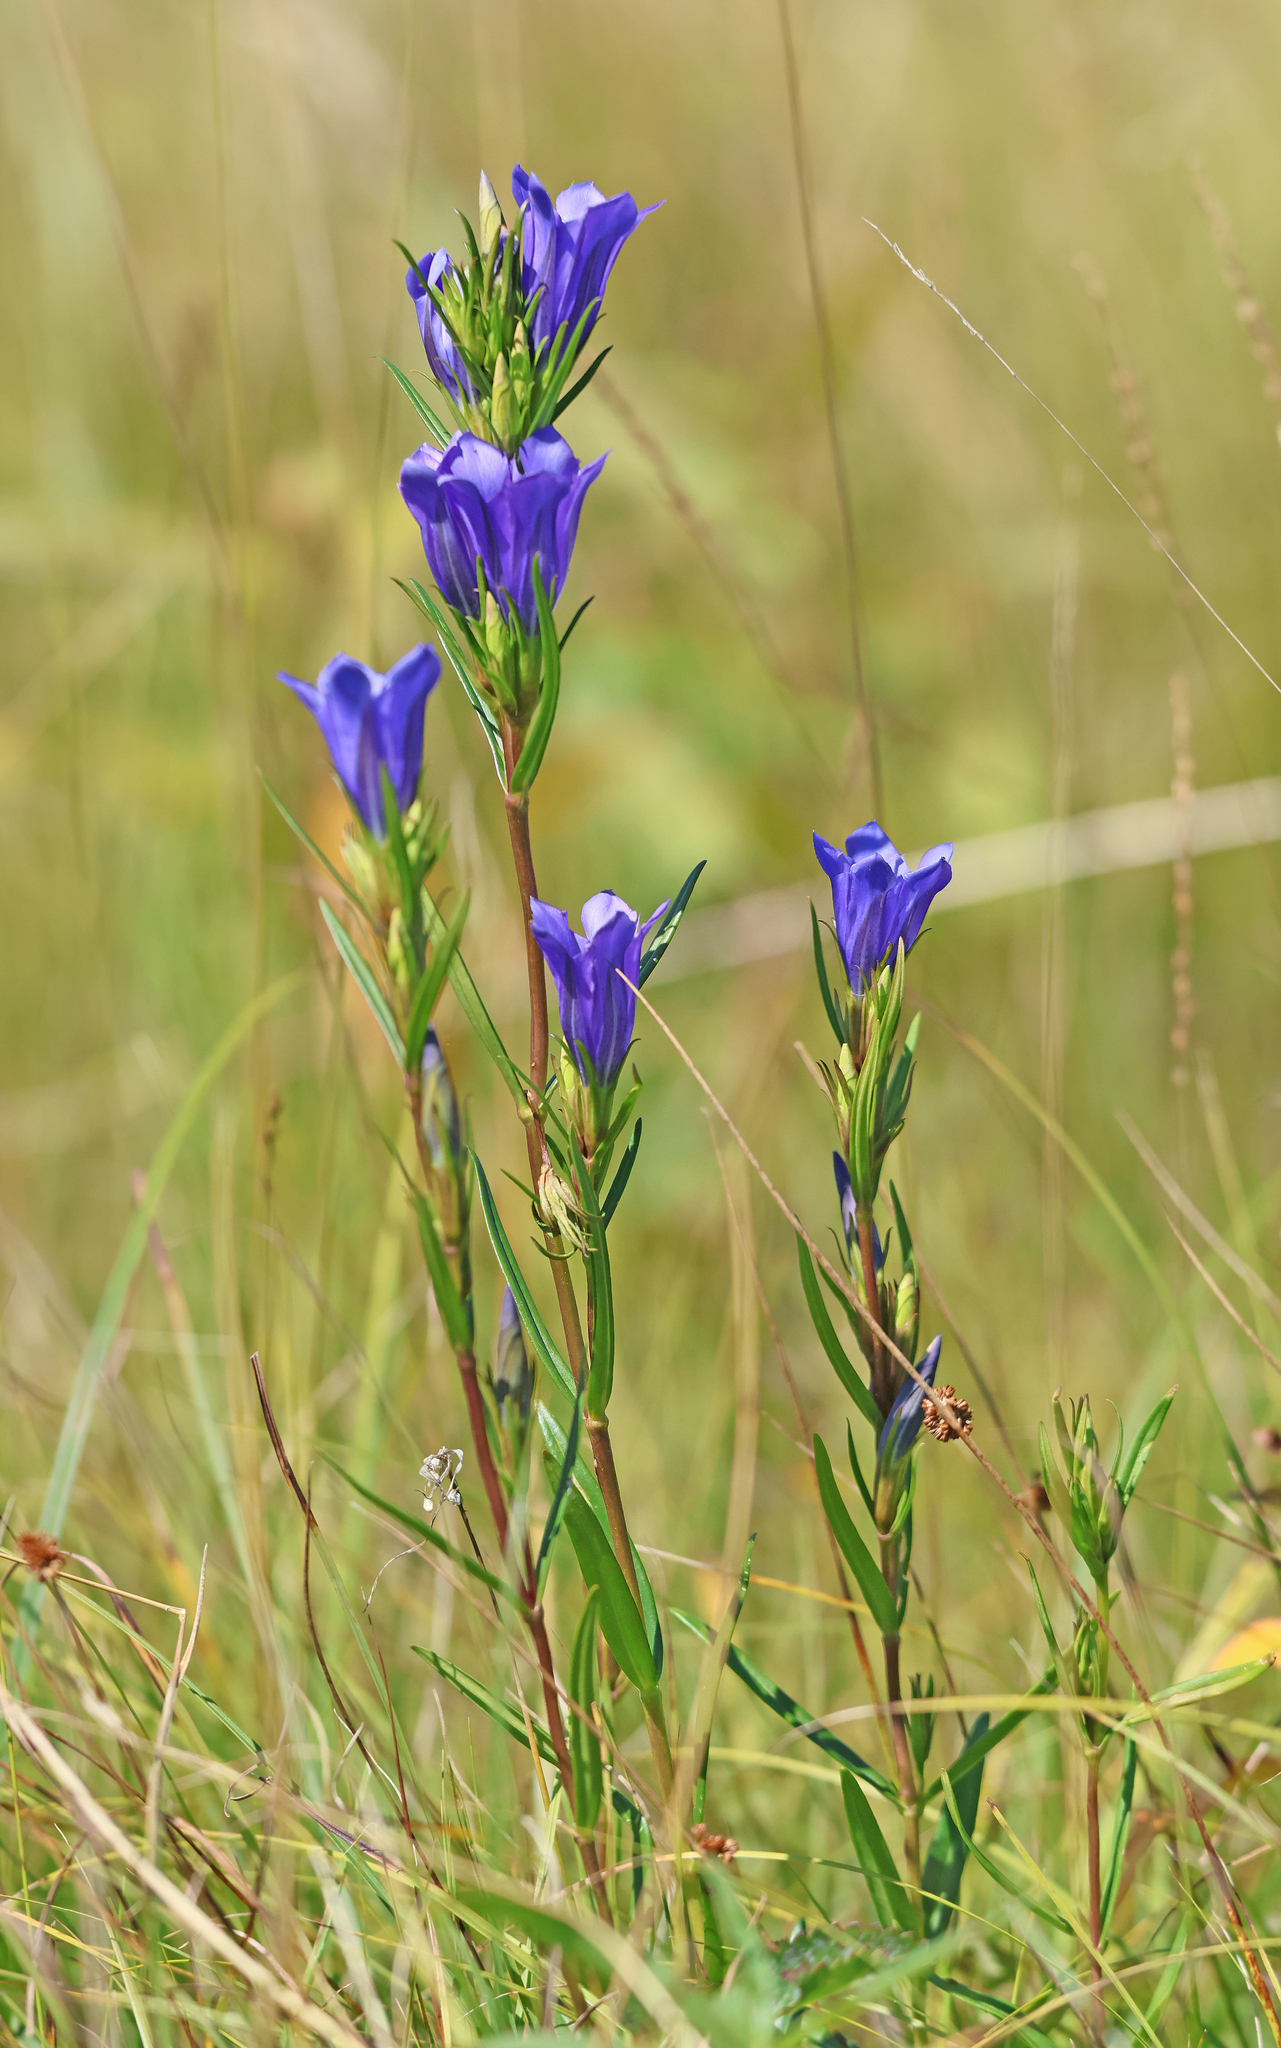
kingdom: Plantae
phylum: Tracheophyta
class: Magnoliopsida
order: Gentianales
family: Gentianaceae
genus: Gentiana
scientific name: Gentiana pneumonanthe
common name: Marsh gentian
